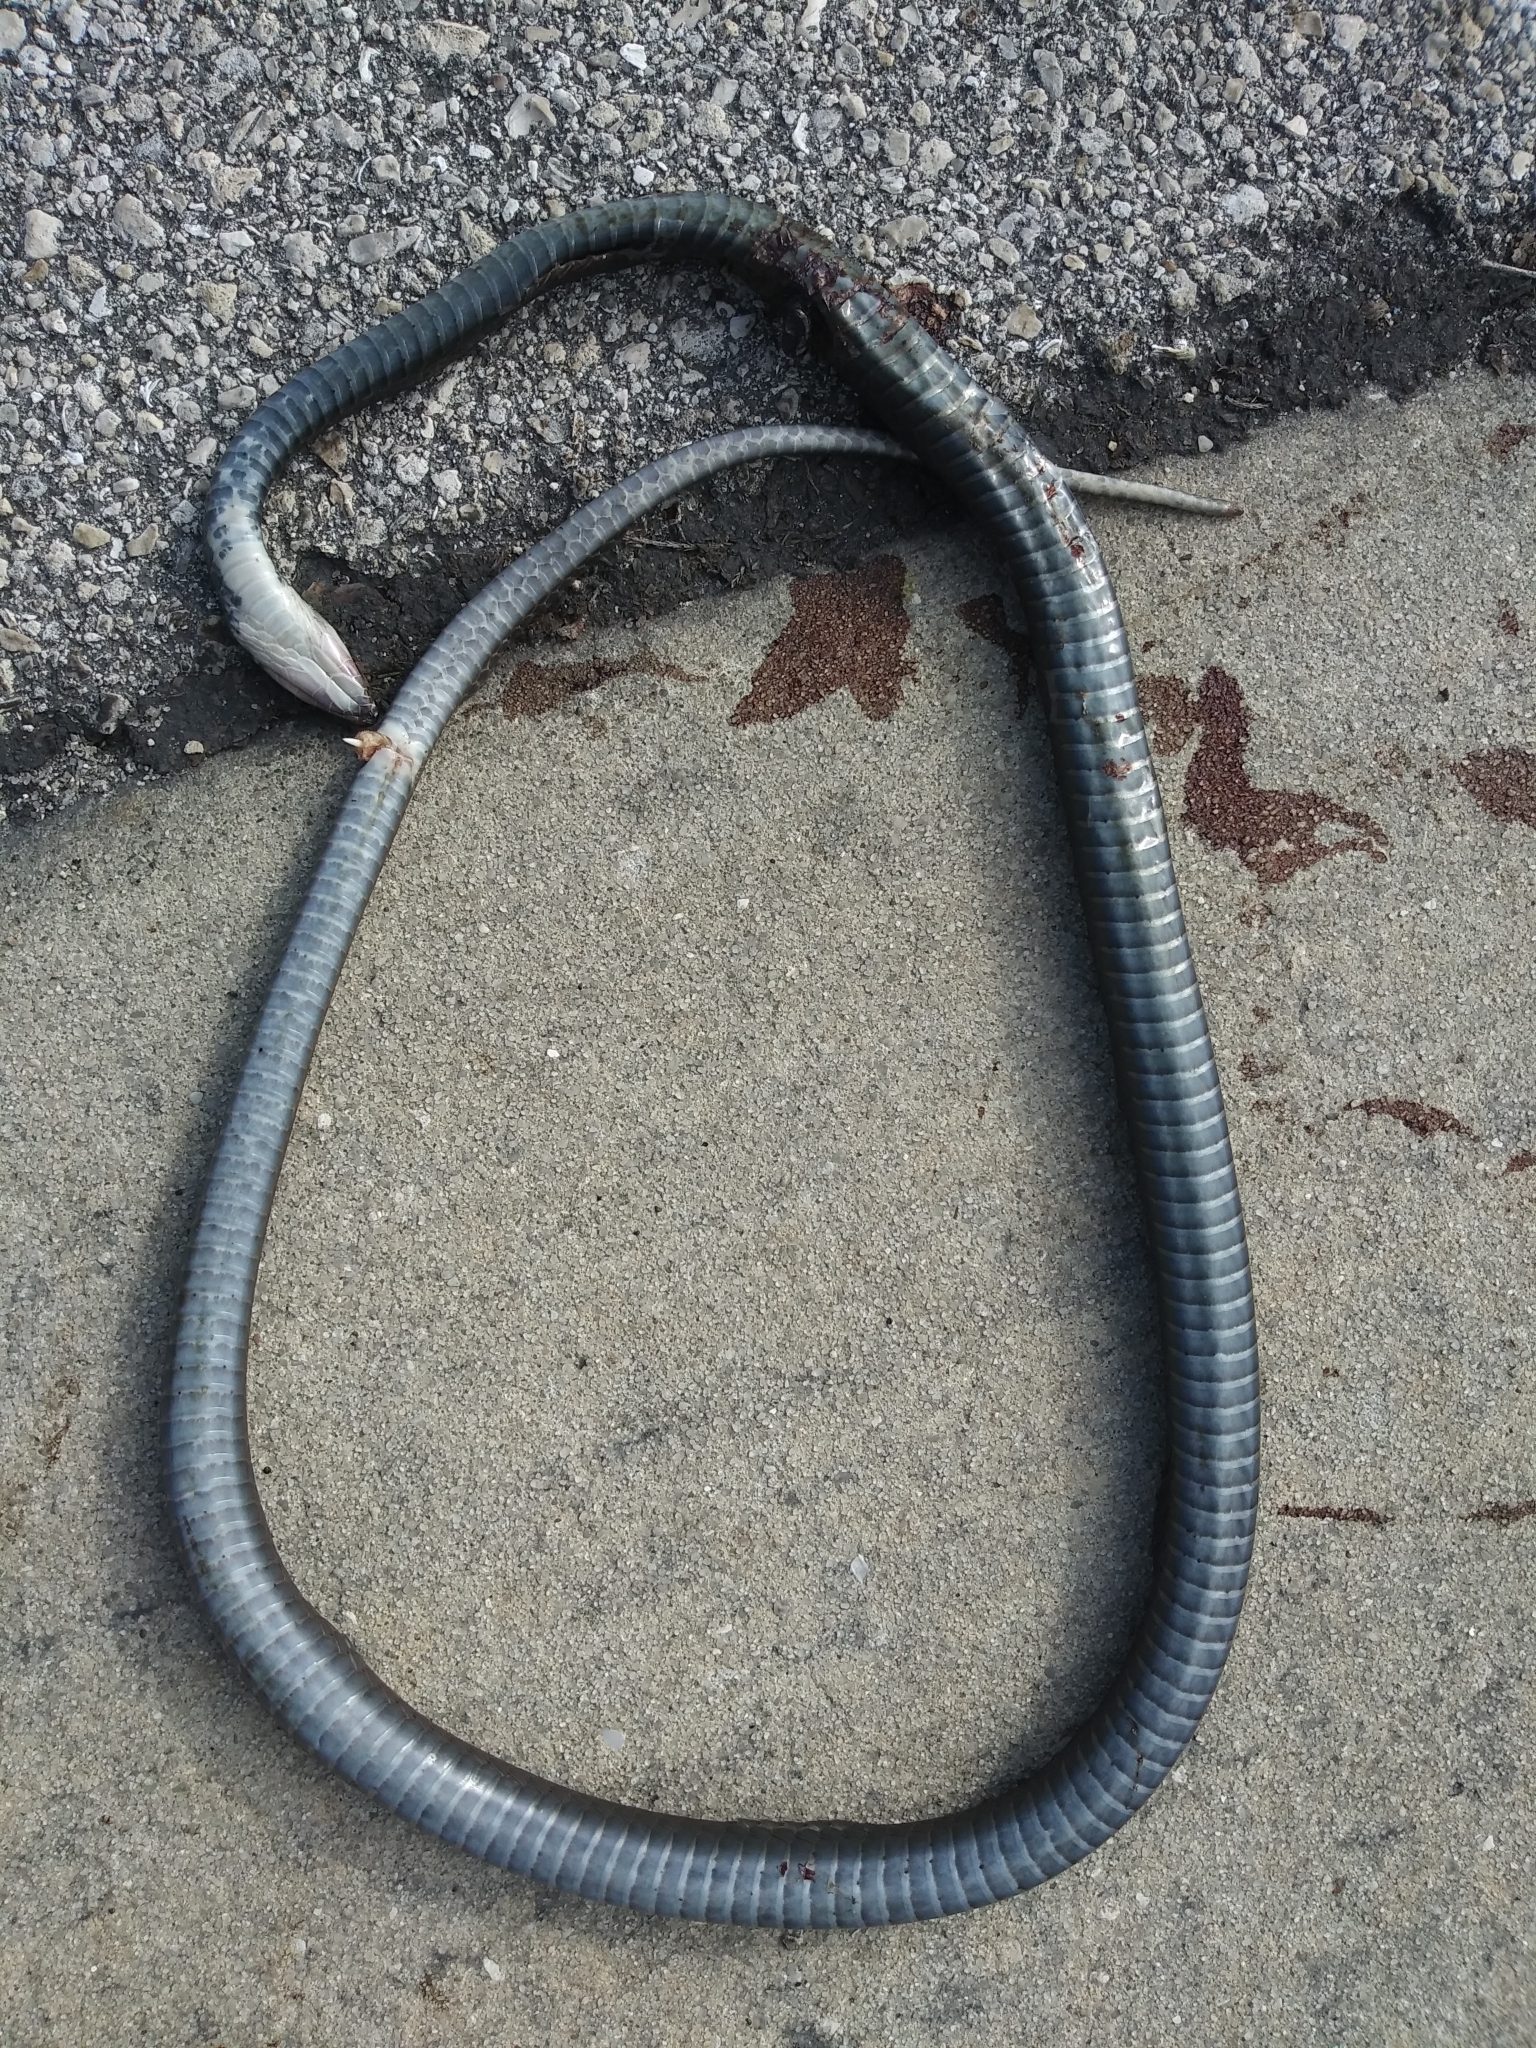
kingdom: Animalia
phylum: Chordata
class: Squamata
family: Colubridae
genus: Coluber
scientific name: Coluber constrictor
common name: Eastern racer
